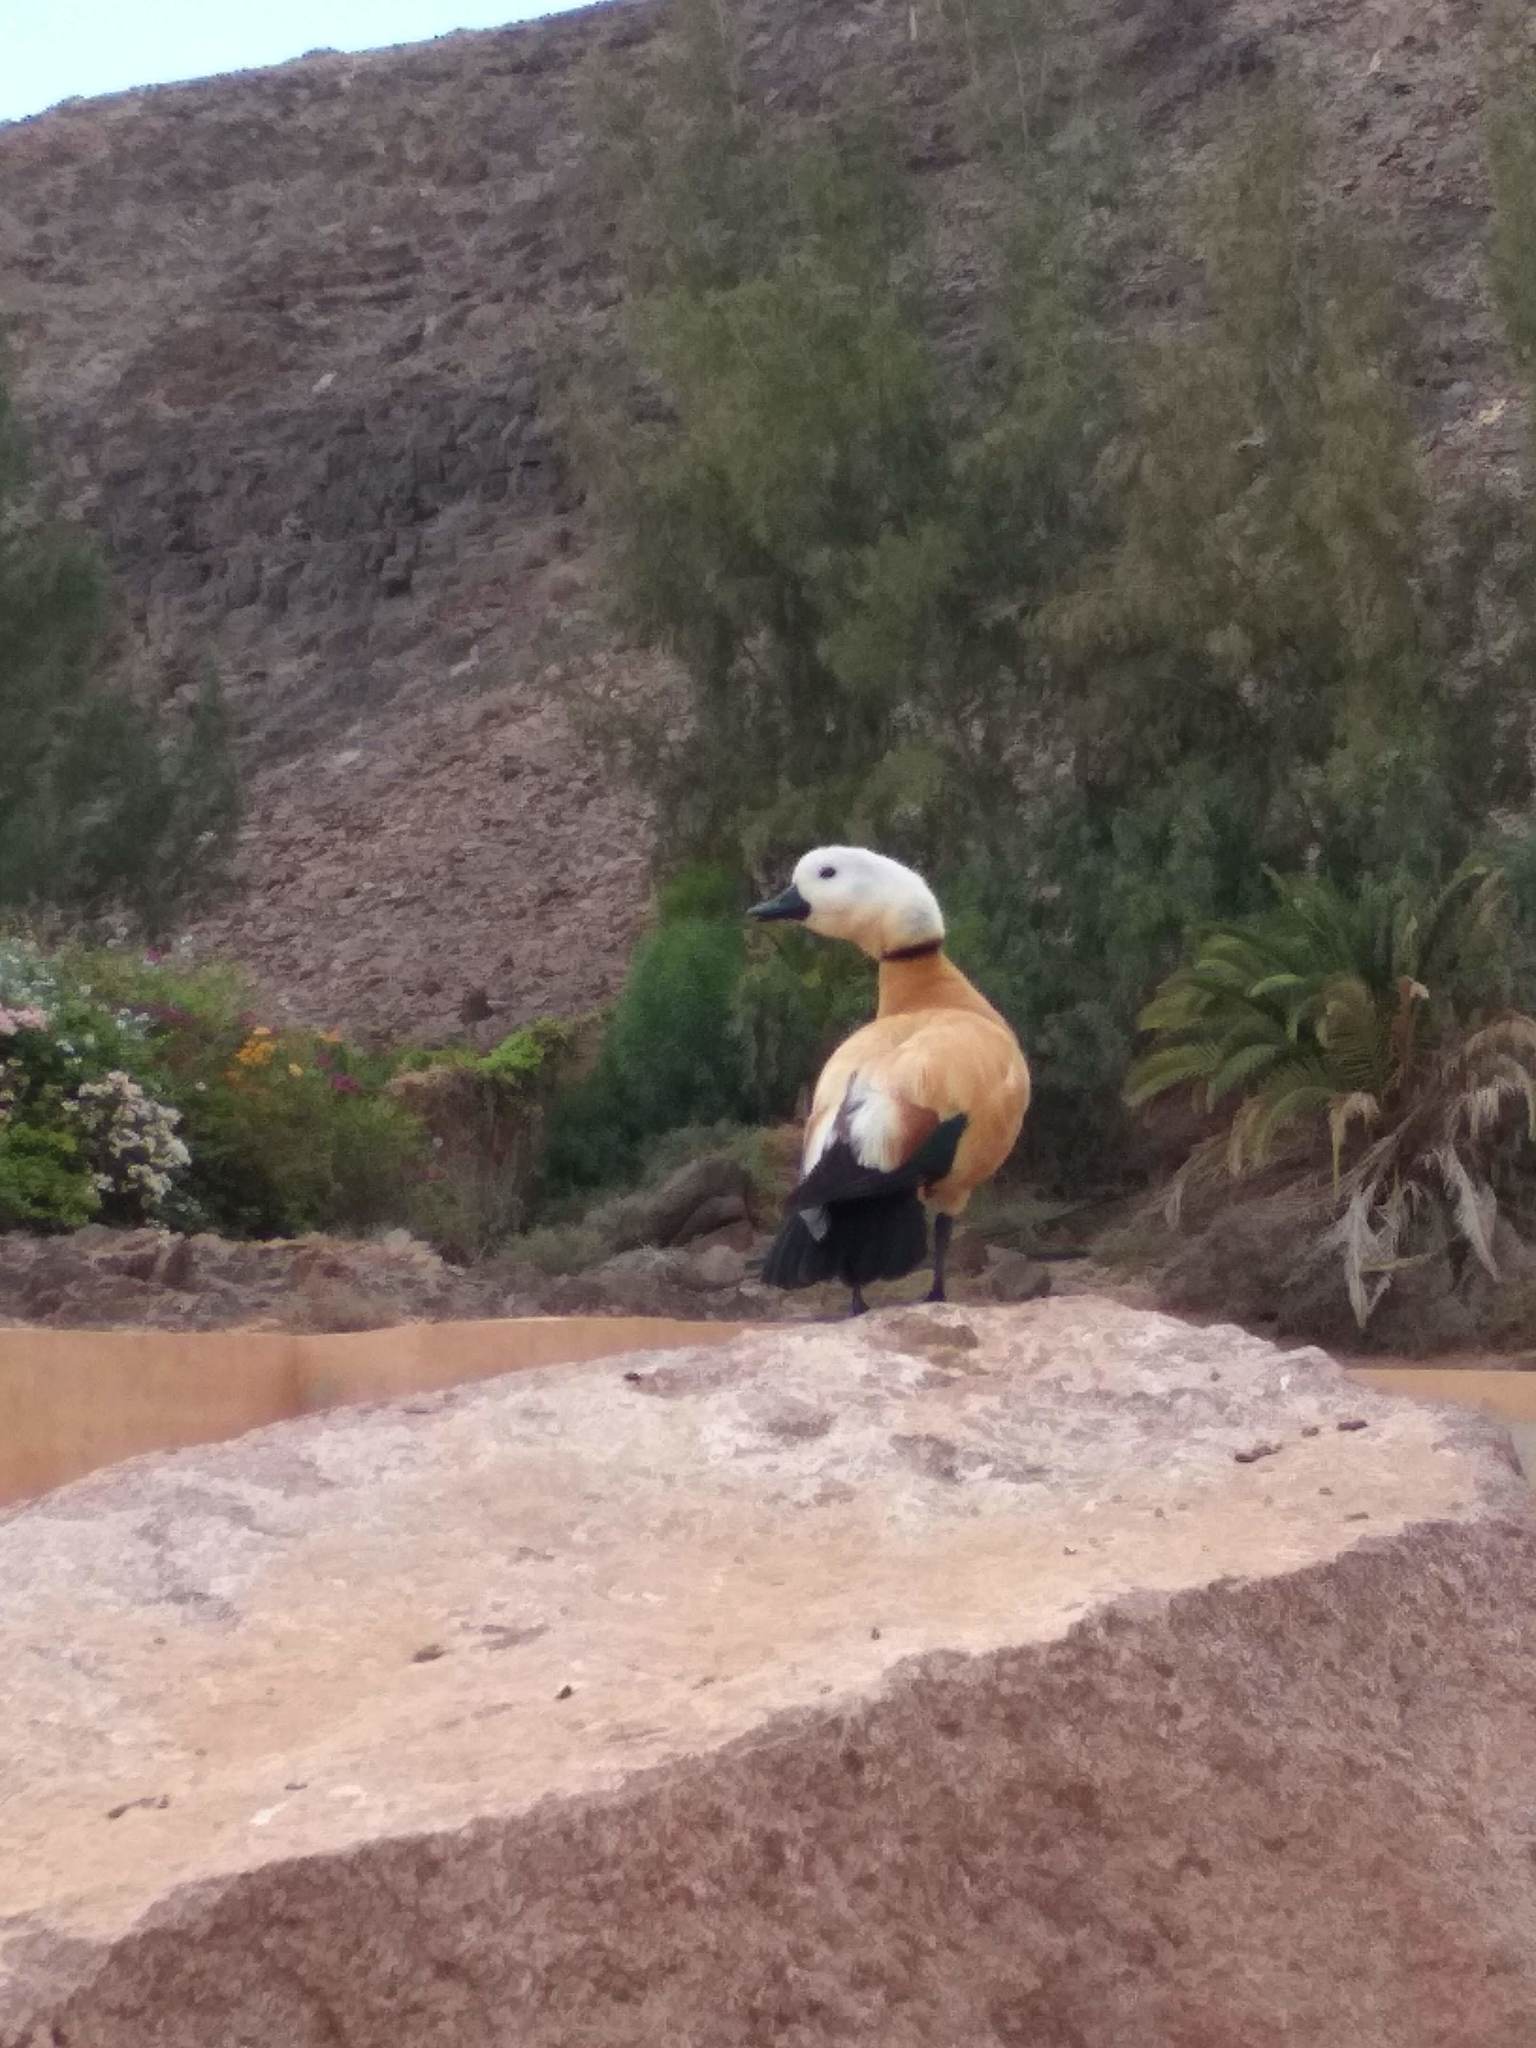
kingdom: Animalia
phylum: Chordata
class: Aves
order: Anseriformes
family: Anatidae
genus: Tadorna
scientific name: Tadorna ferruginea
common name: Ruddy shelduck
